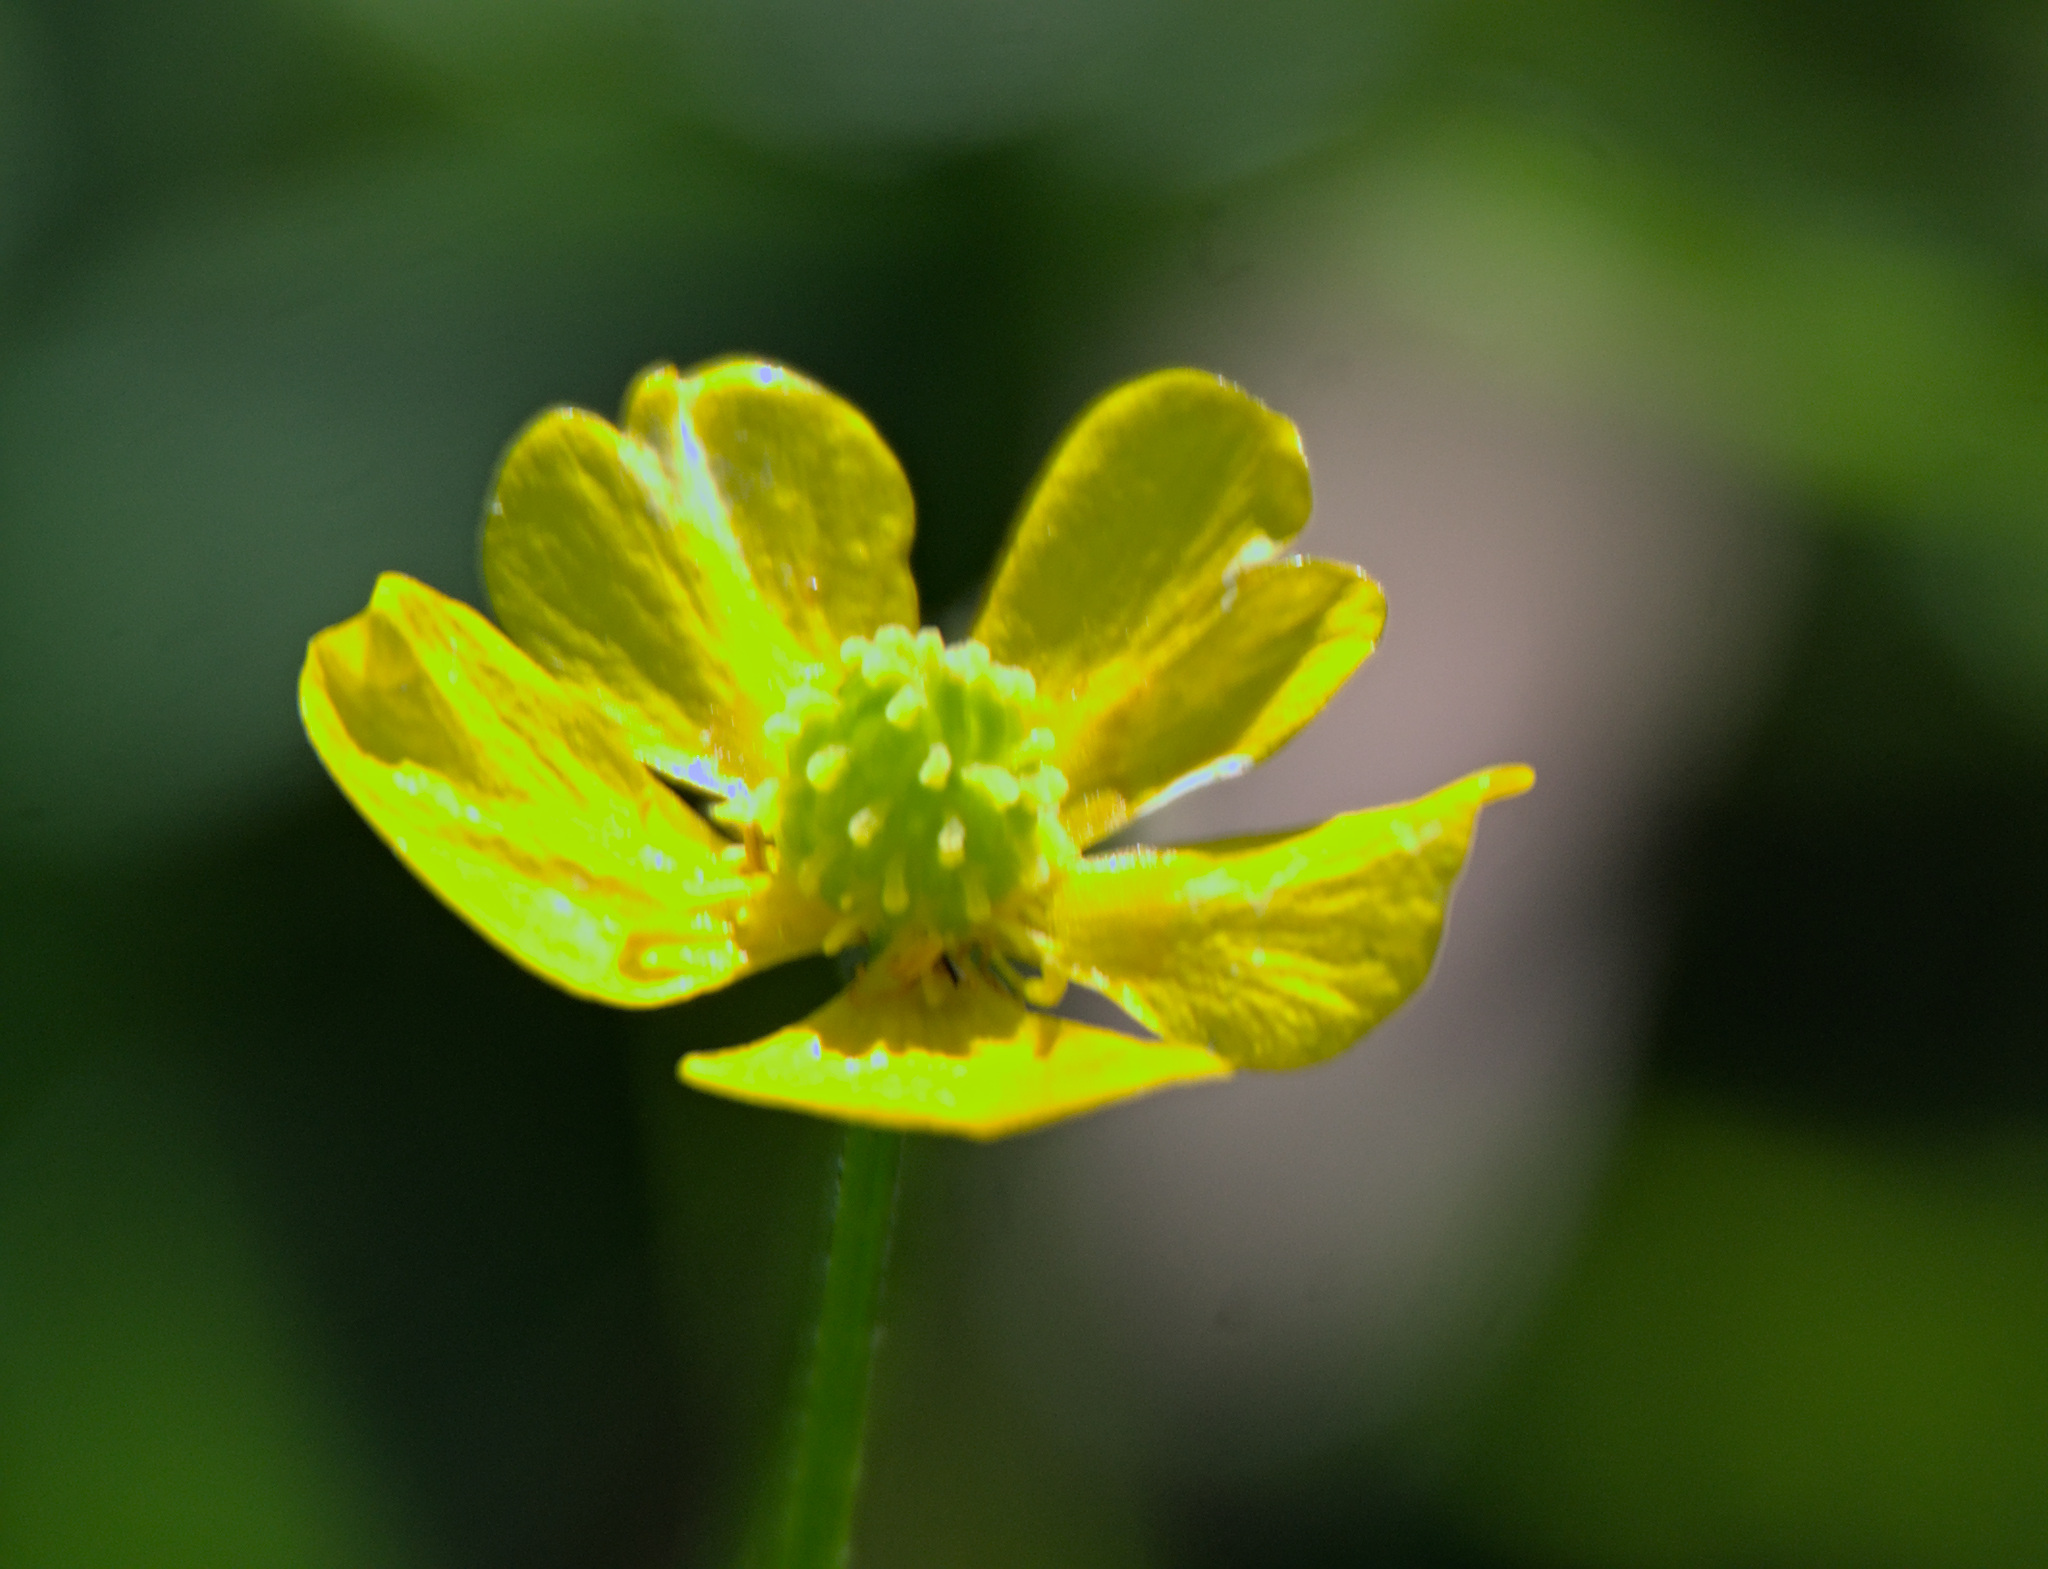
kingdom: Plantae
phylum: Tracheophyta
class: Magnoliopsida
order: Ranunculales
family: Ranunculaceae
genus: Ranunculus
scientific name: Ranunculus polyanthemos
